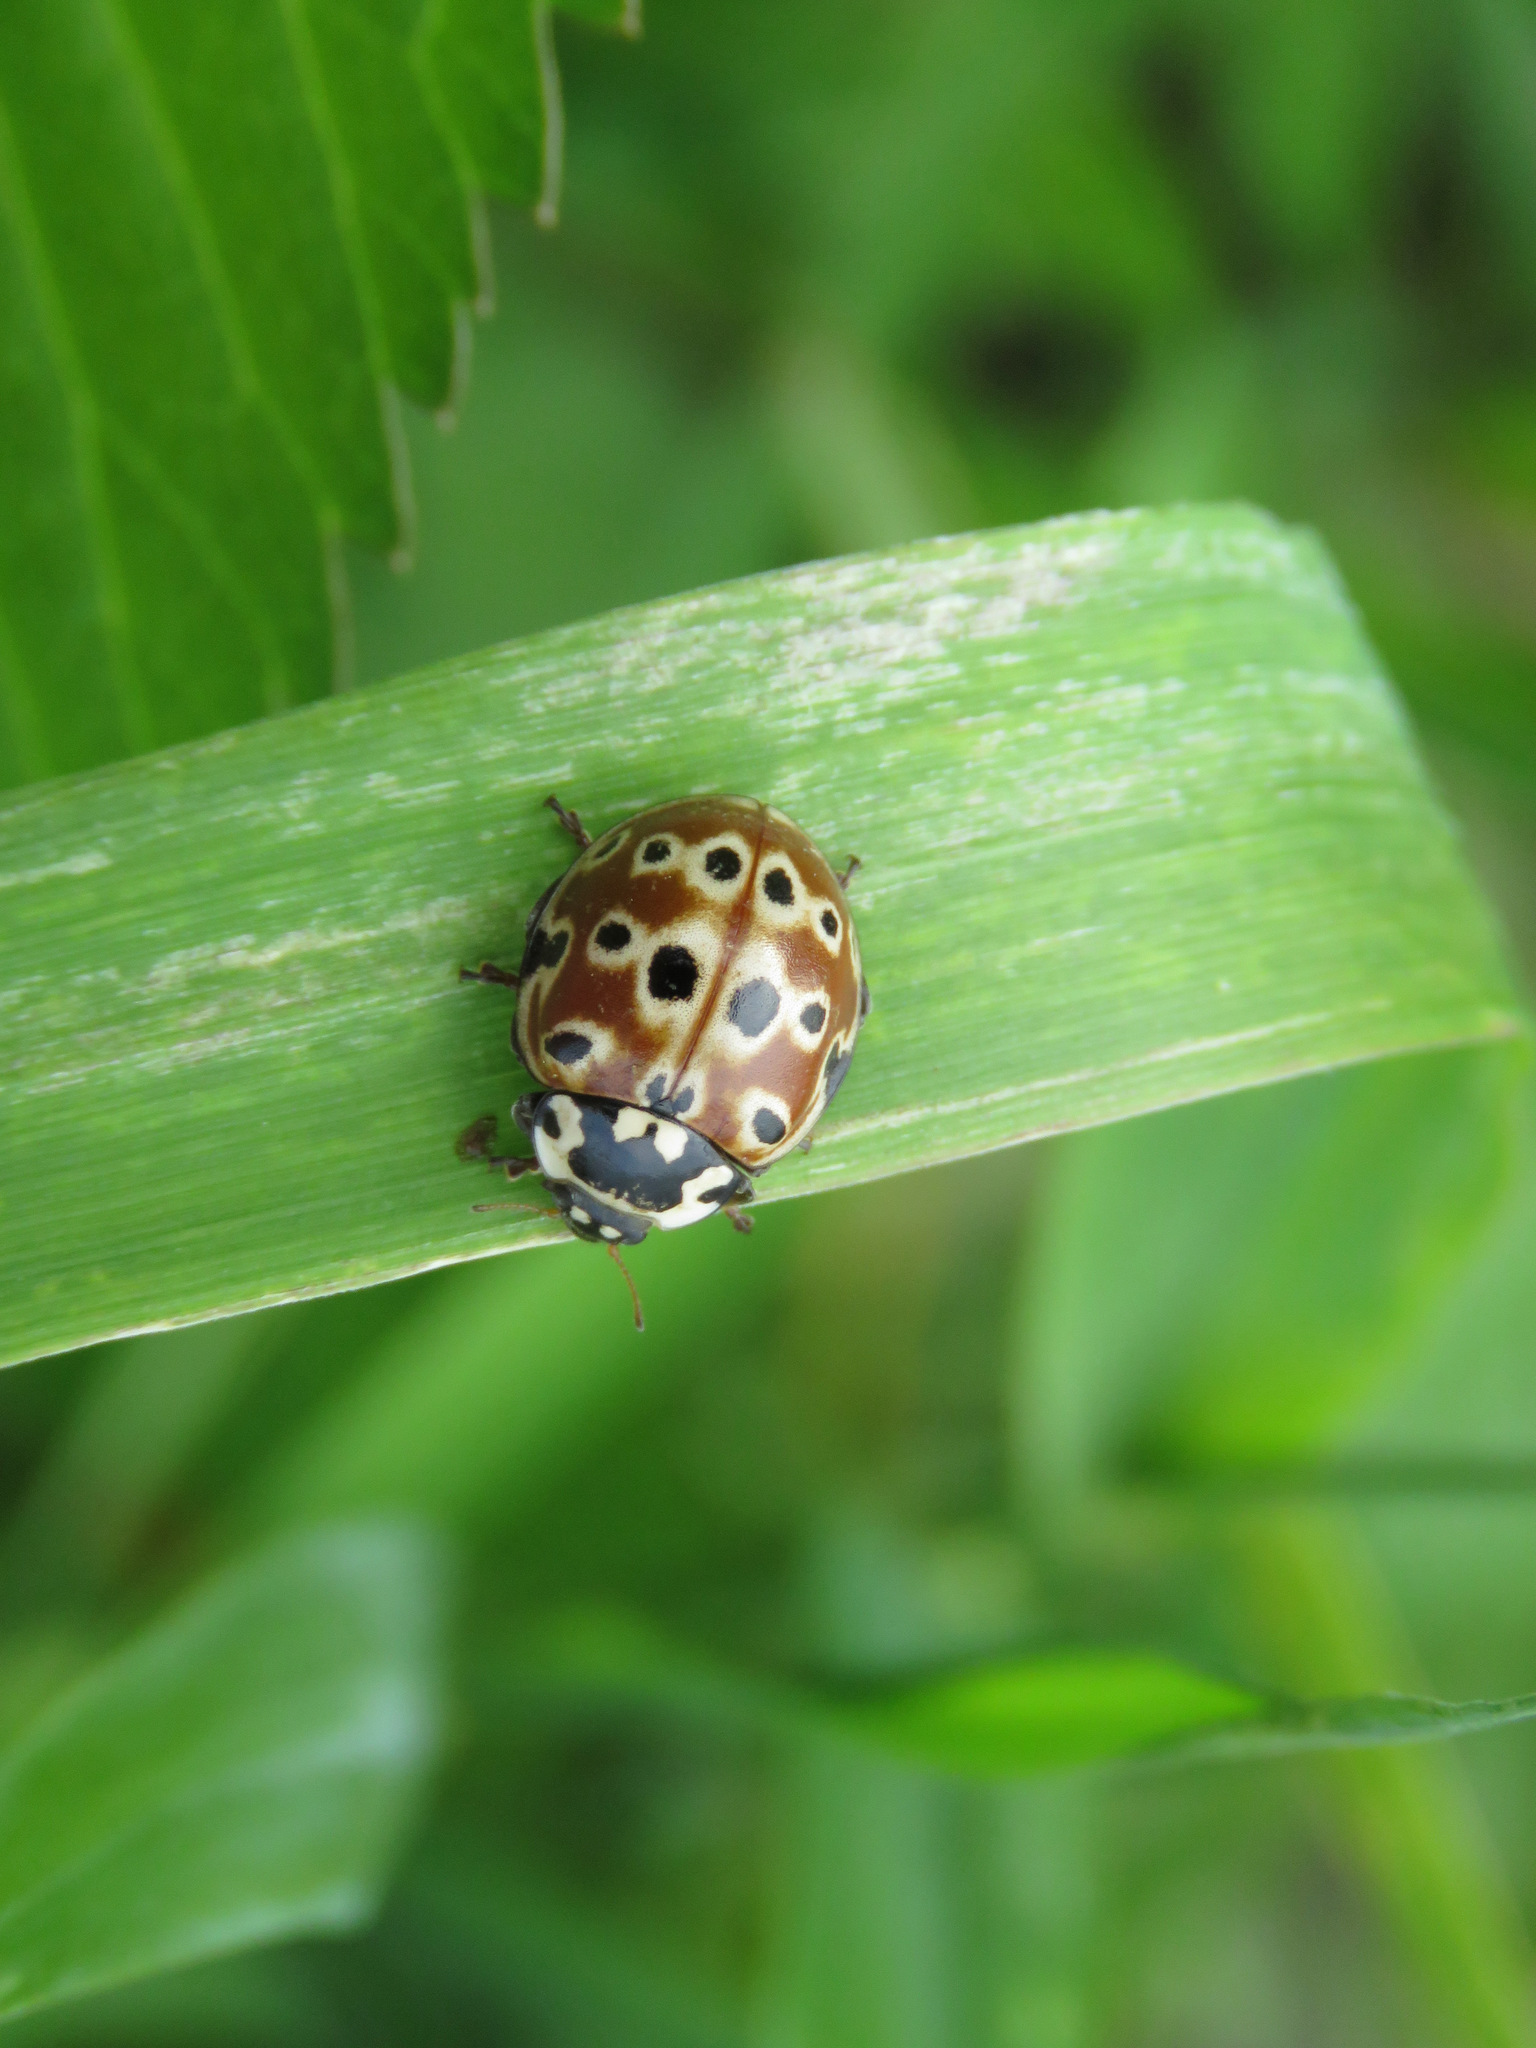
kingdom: Animalia
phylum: Arthropoda
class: Insecta
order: Coleoptera
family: Coccinellidae
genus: Anatis
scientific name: Anatis mali
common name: Eye-spotted lady beetle
